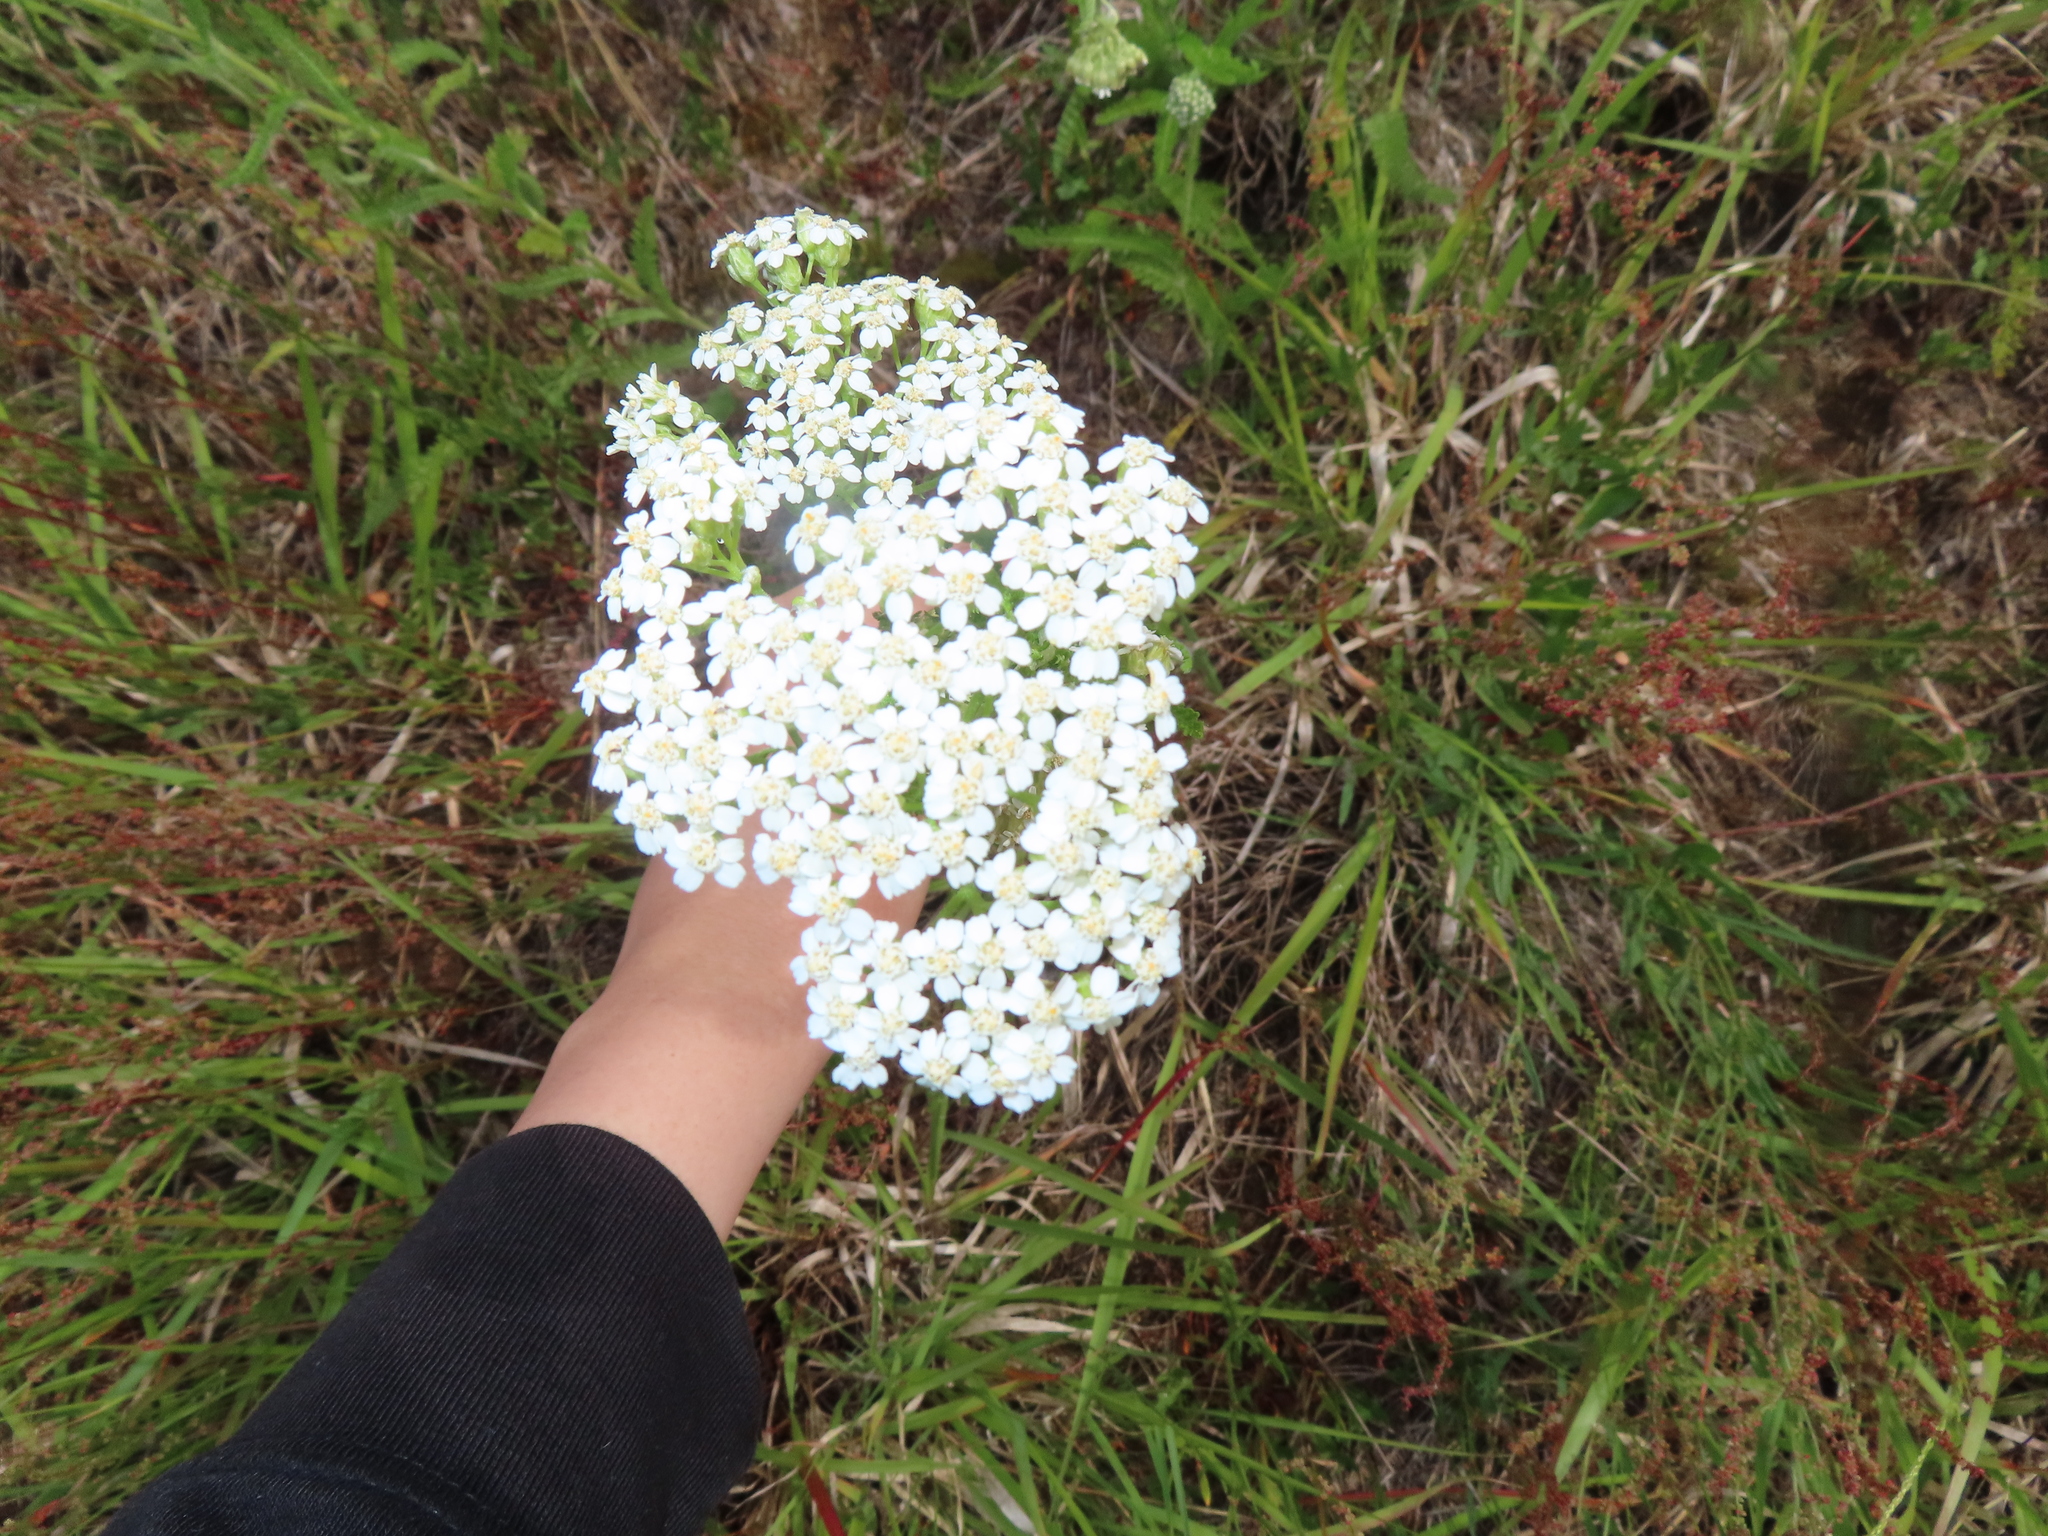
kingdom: Plantae
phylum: Tracheophyta
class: Magnoliopsida
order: Asterales
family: Asteraceae
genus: Achillea
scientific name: Achillea millefolium
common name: Yarrow
